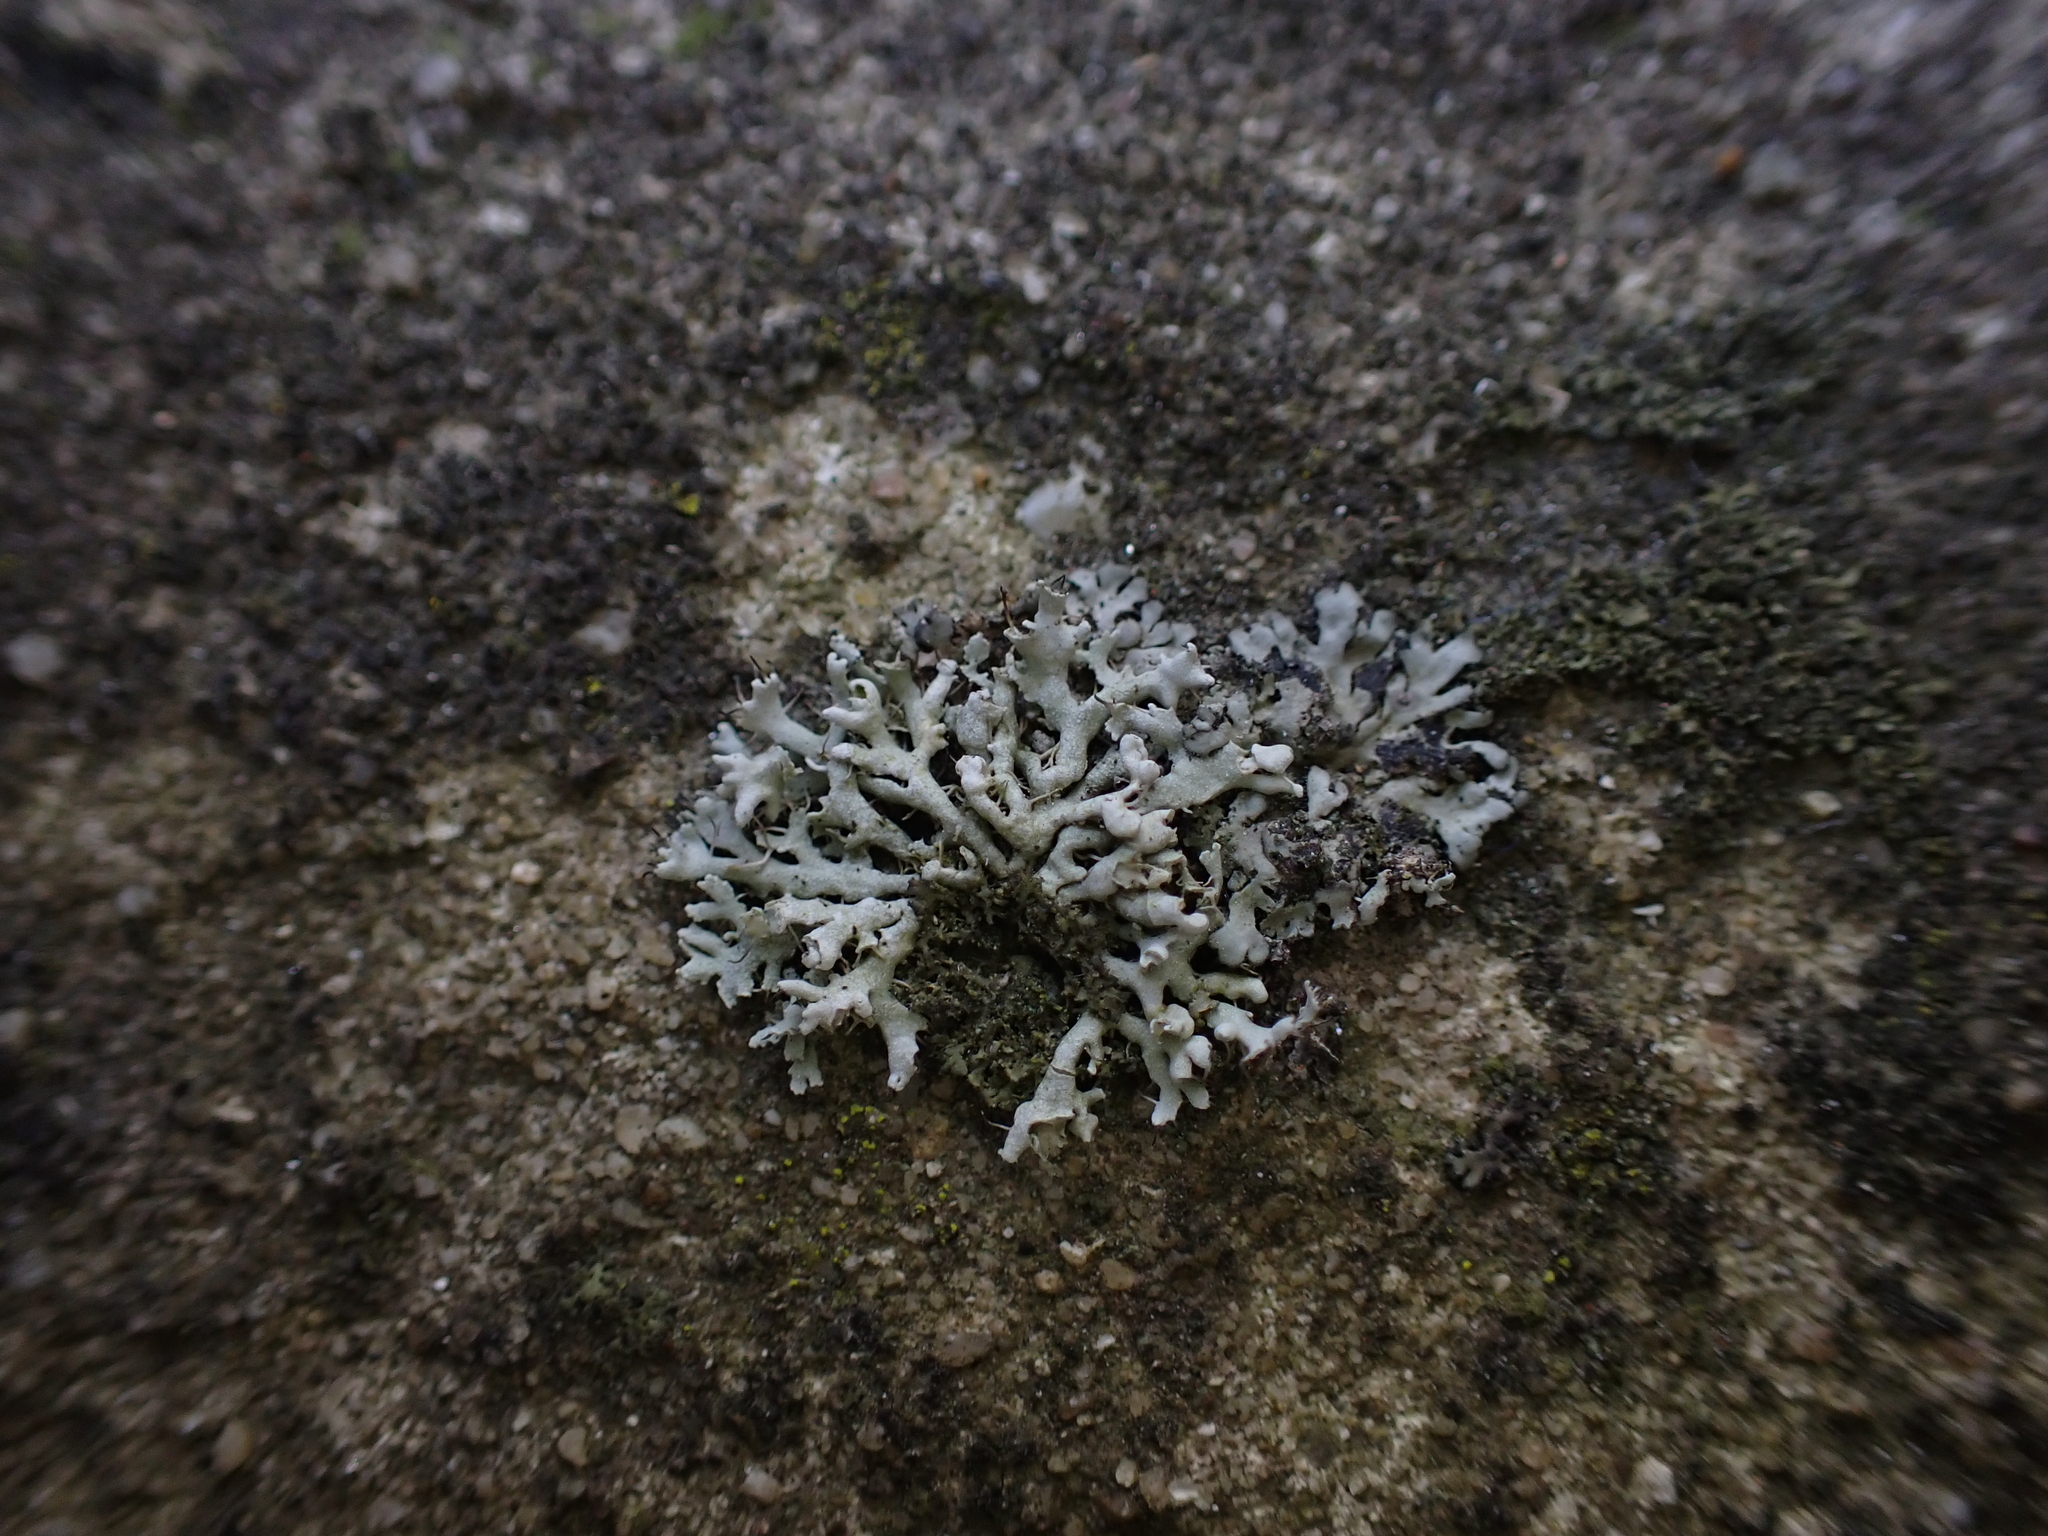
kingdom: Fungi
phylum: Ascomycota
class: Lecanoromycetes
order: Caliciales
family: Physciaceae
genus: Physcia
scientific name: Physcia adscendens
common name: Hooded rosette lichen
